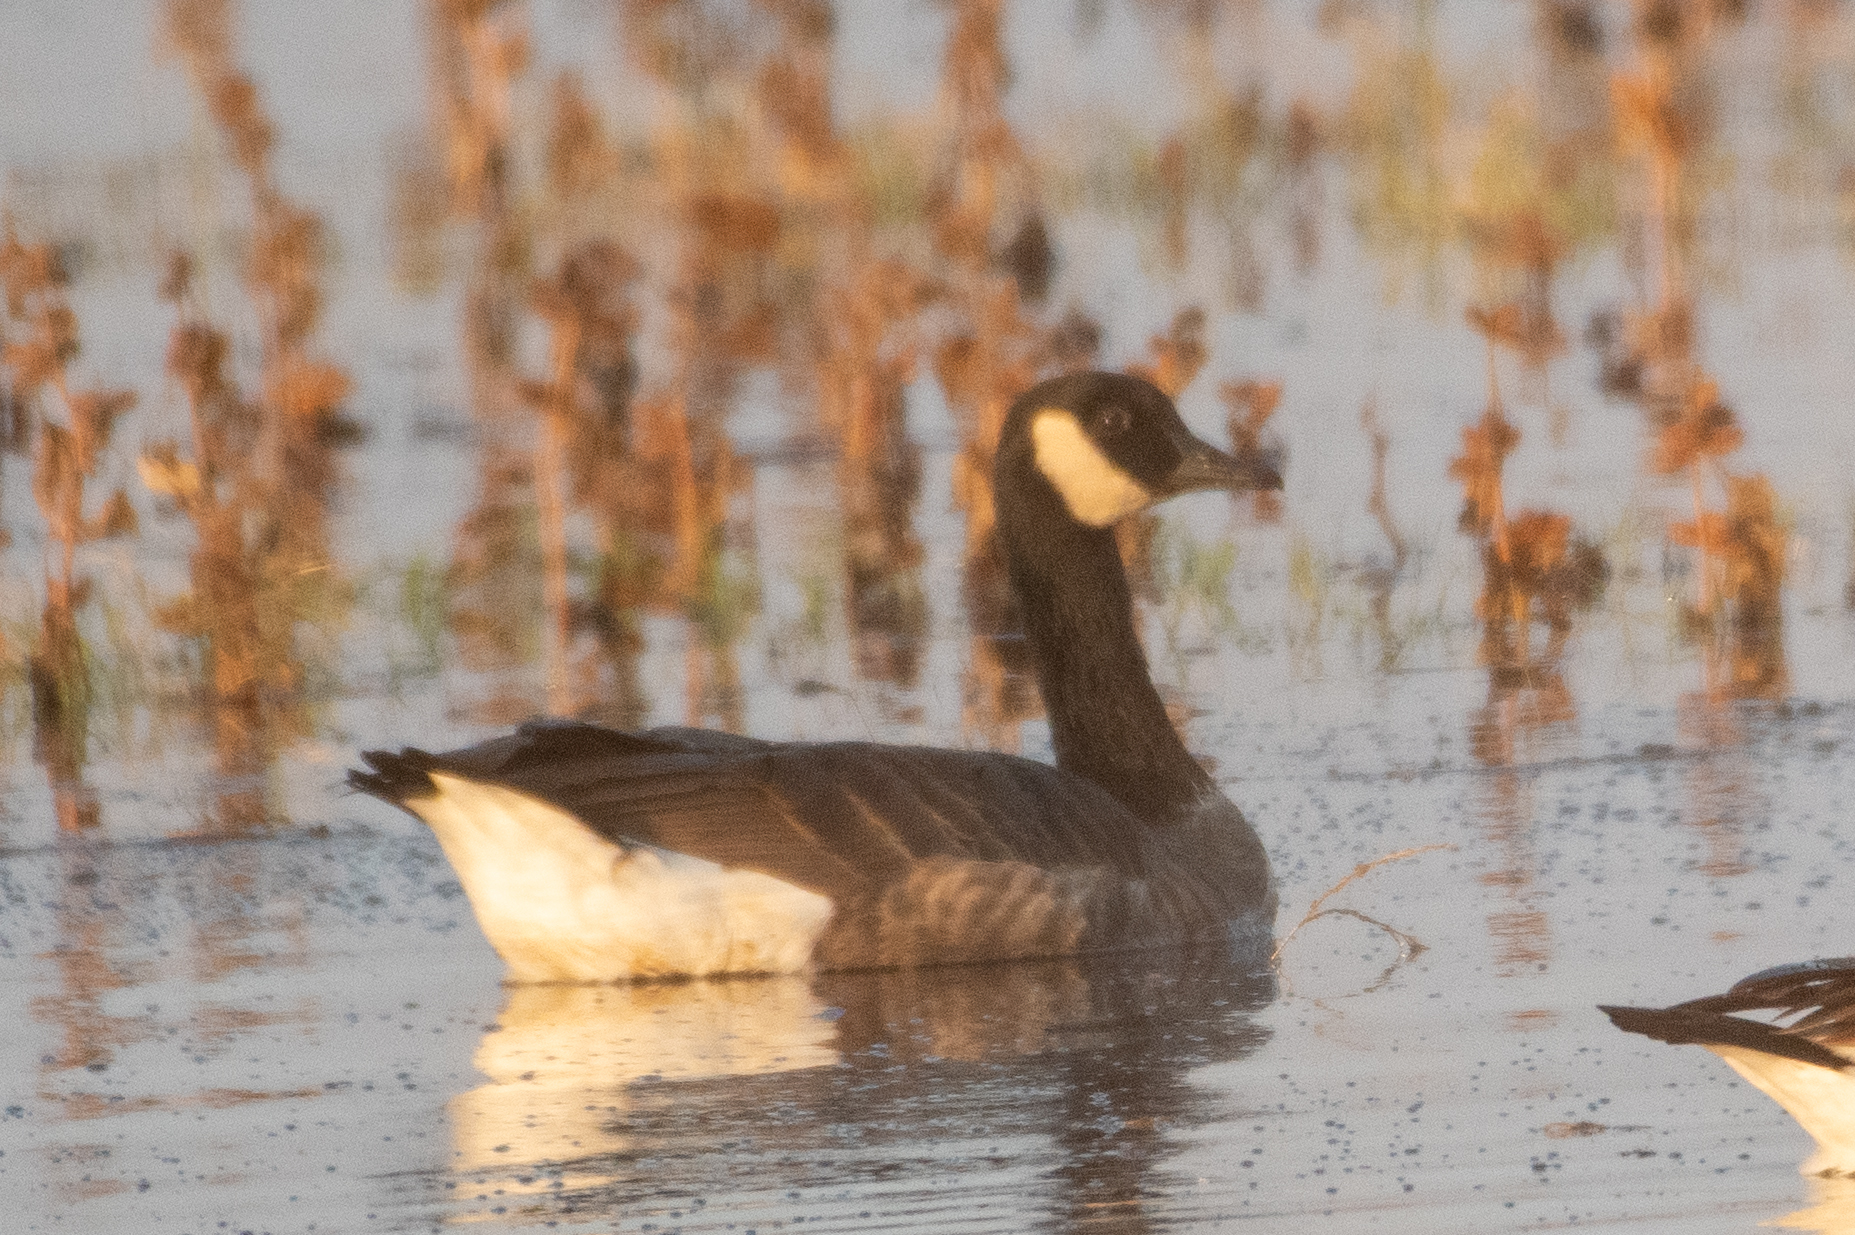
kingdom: Animalia
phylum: Chordata
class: Aves
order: Anseriformes
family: Anatidae
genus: Branta
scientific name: Branta canadensis
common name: Canada goose
